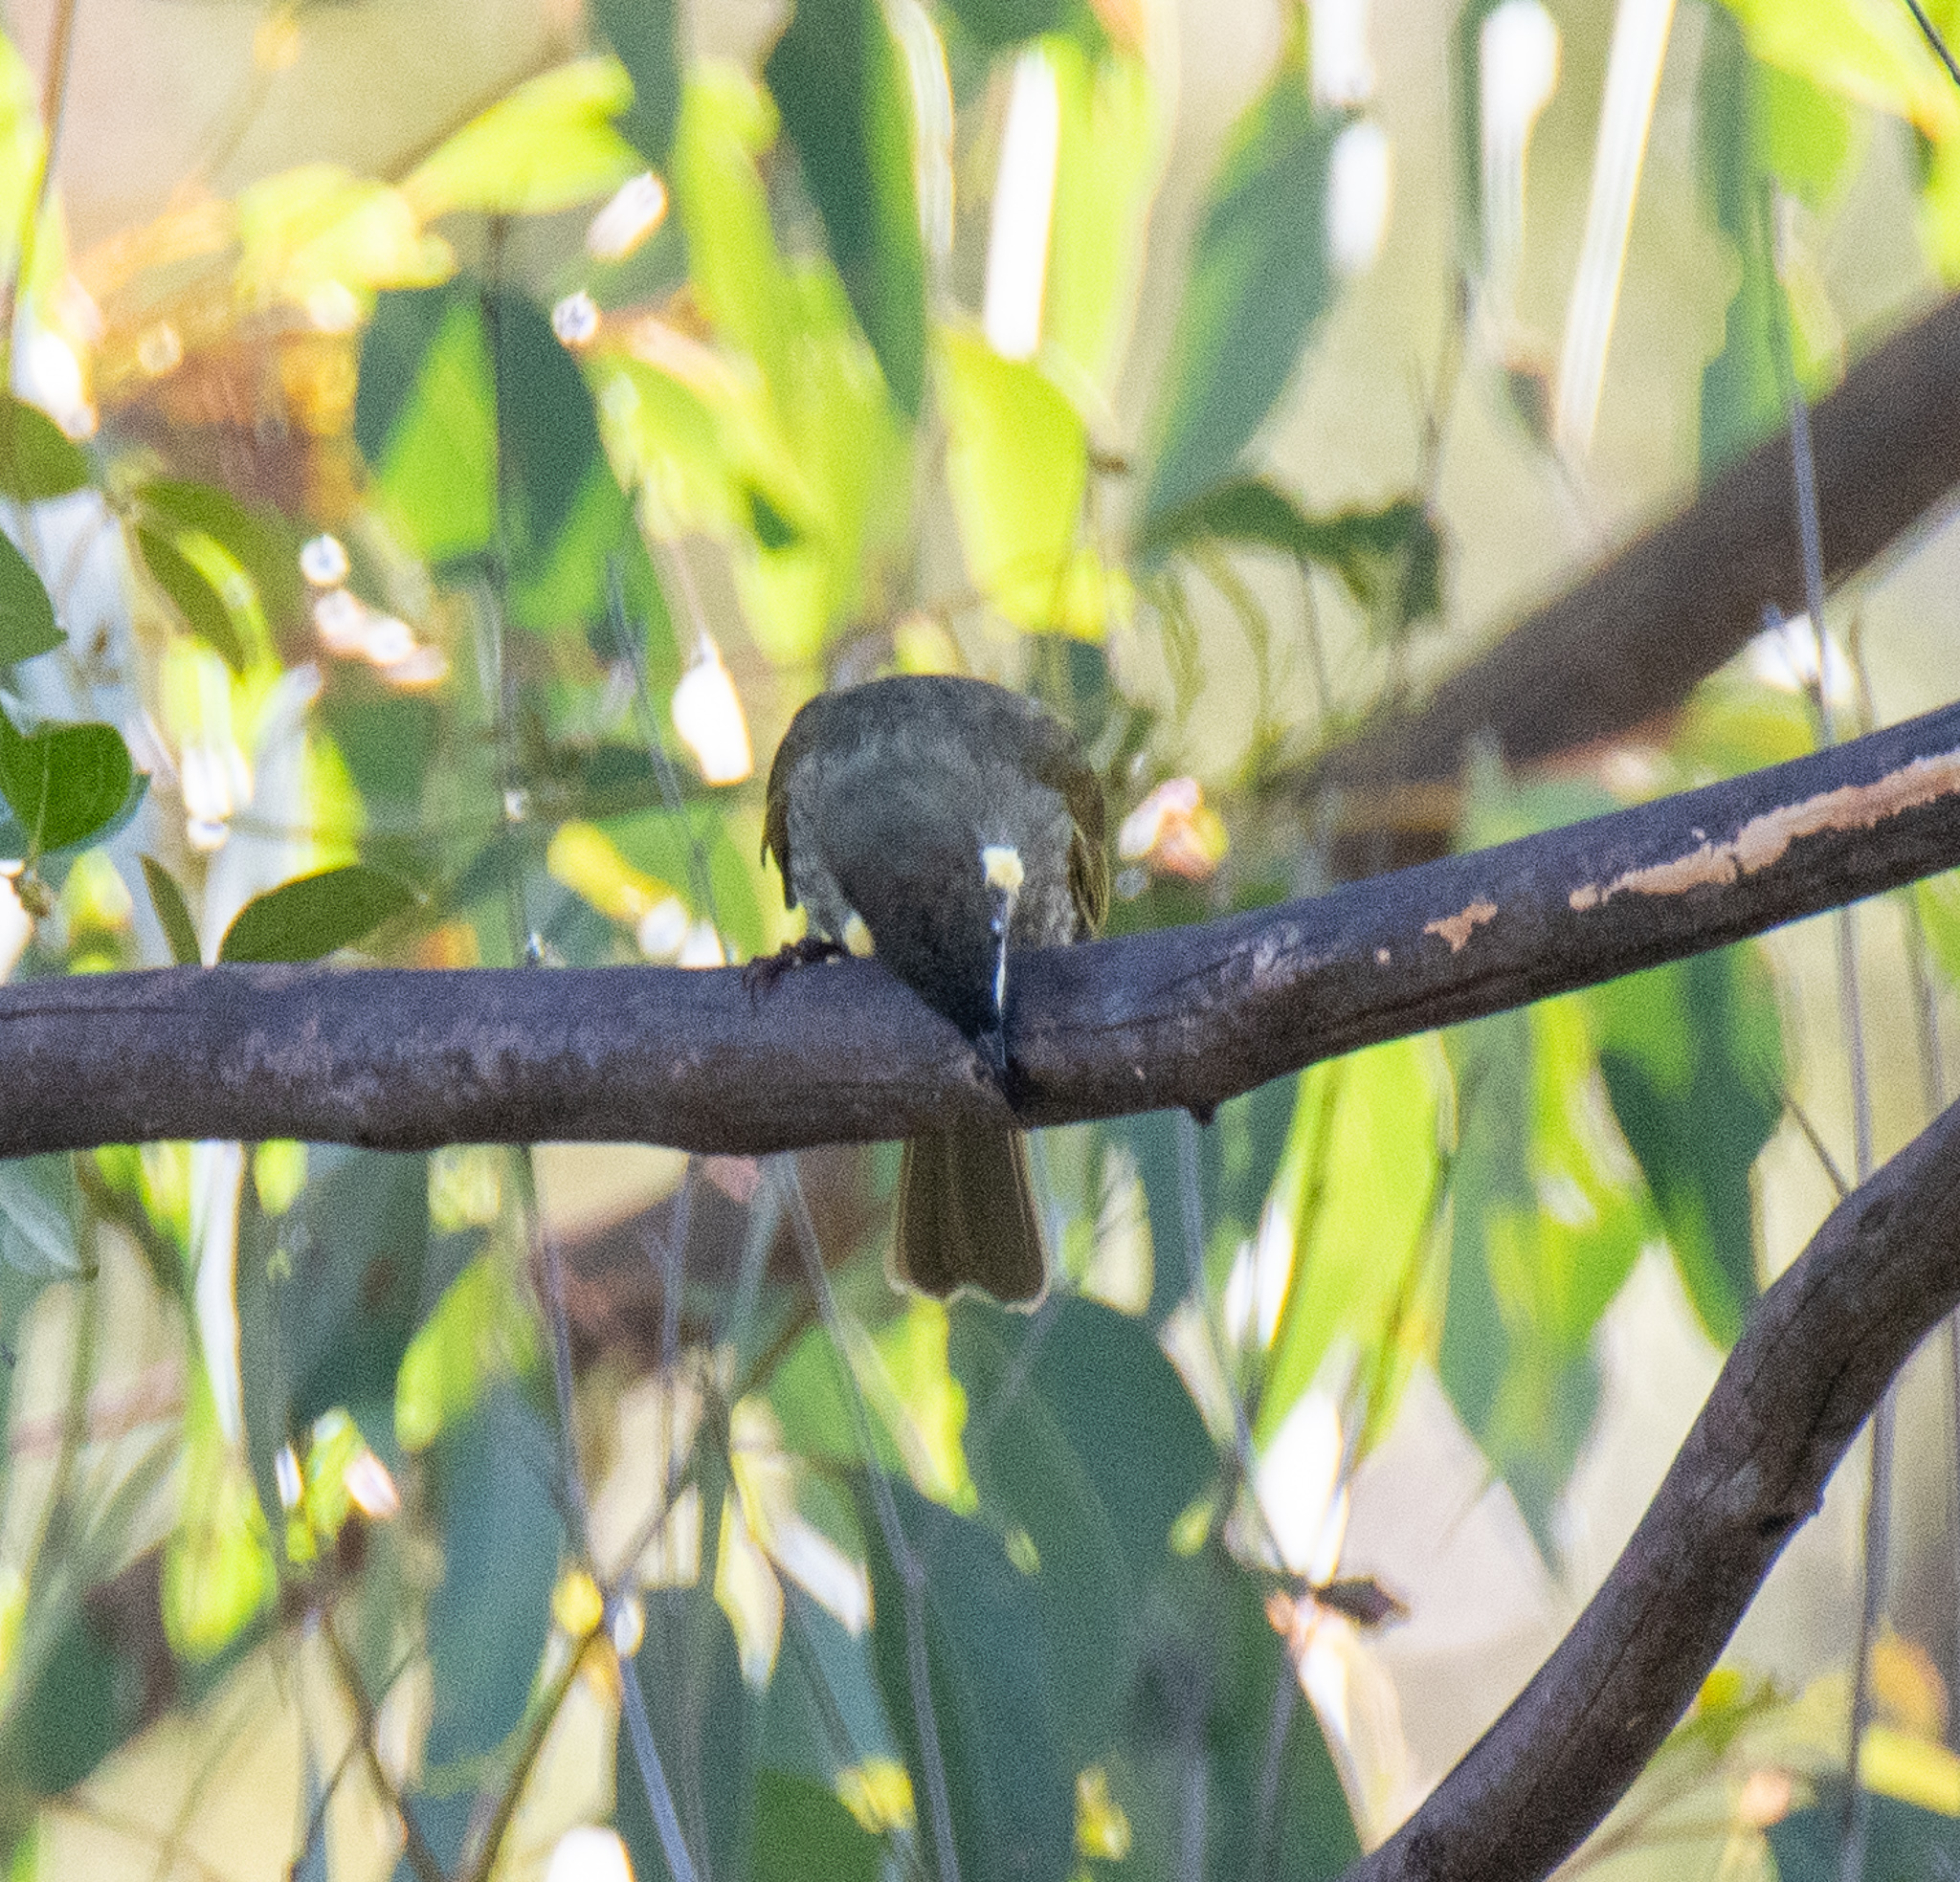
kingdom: Animalia
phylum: Chordata
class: Aves
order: Passeriformes
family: Meliphagidae
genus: Meliphaga
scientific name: Meliphaga lewinii
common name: Lewin's honeyeater
